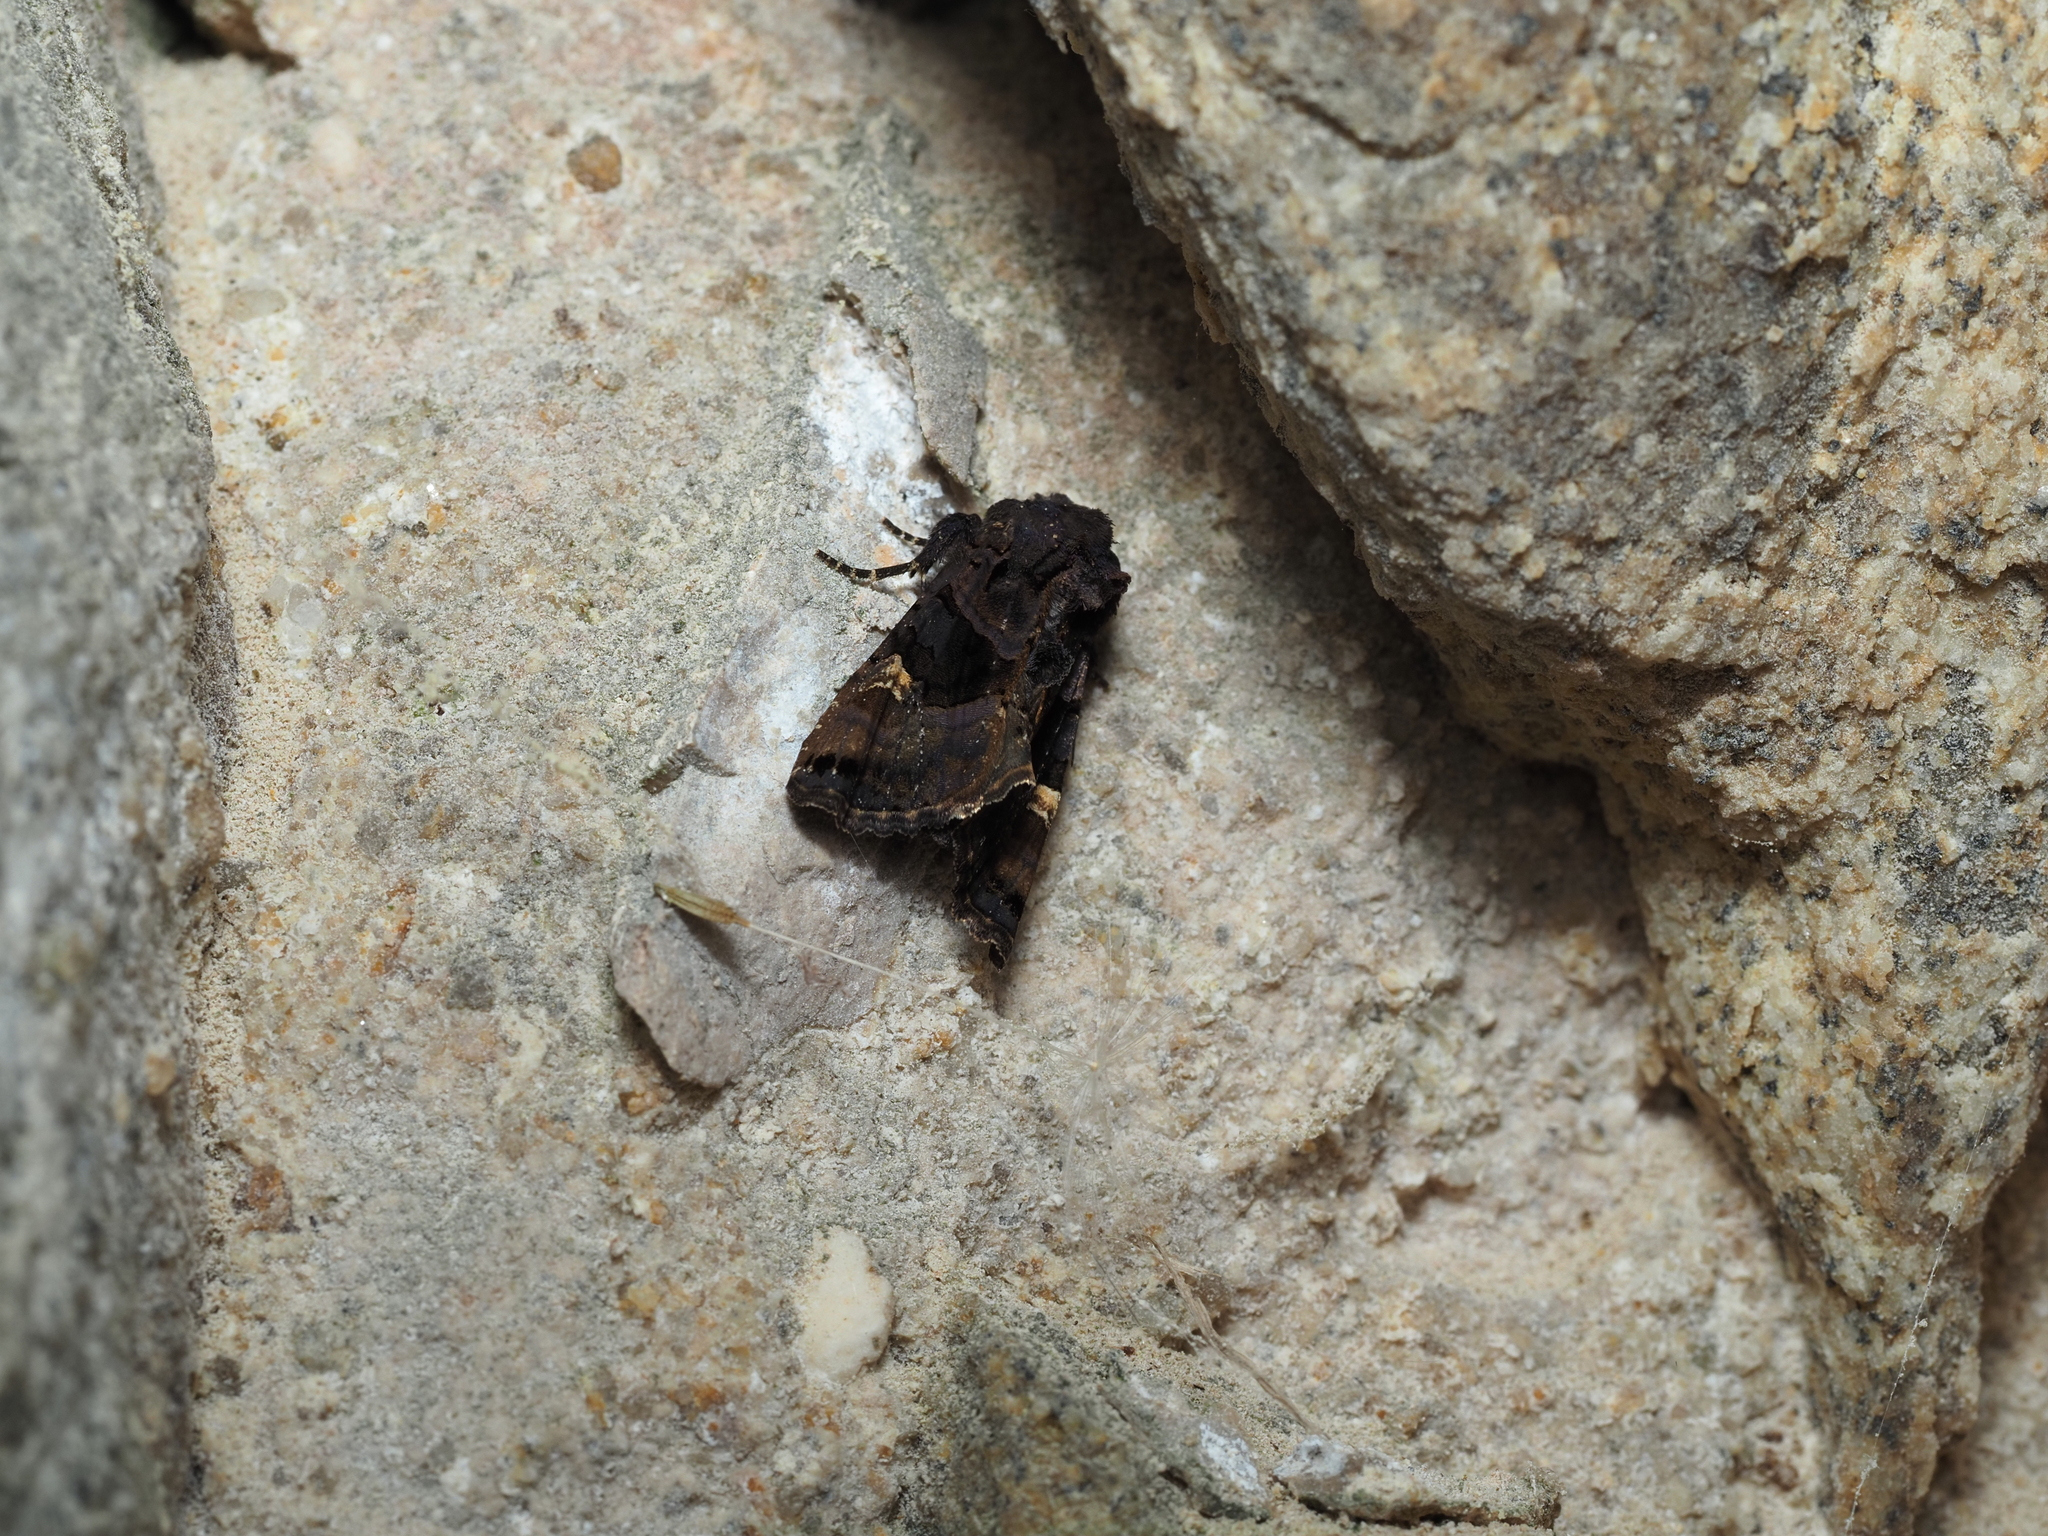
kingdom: Animalia
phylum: Arthropoda
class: Insecta
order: Lepidoptera
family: Noctuidae
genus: Euplexia
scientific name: Euplexia lucipara
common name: Small angle shades
